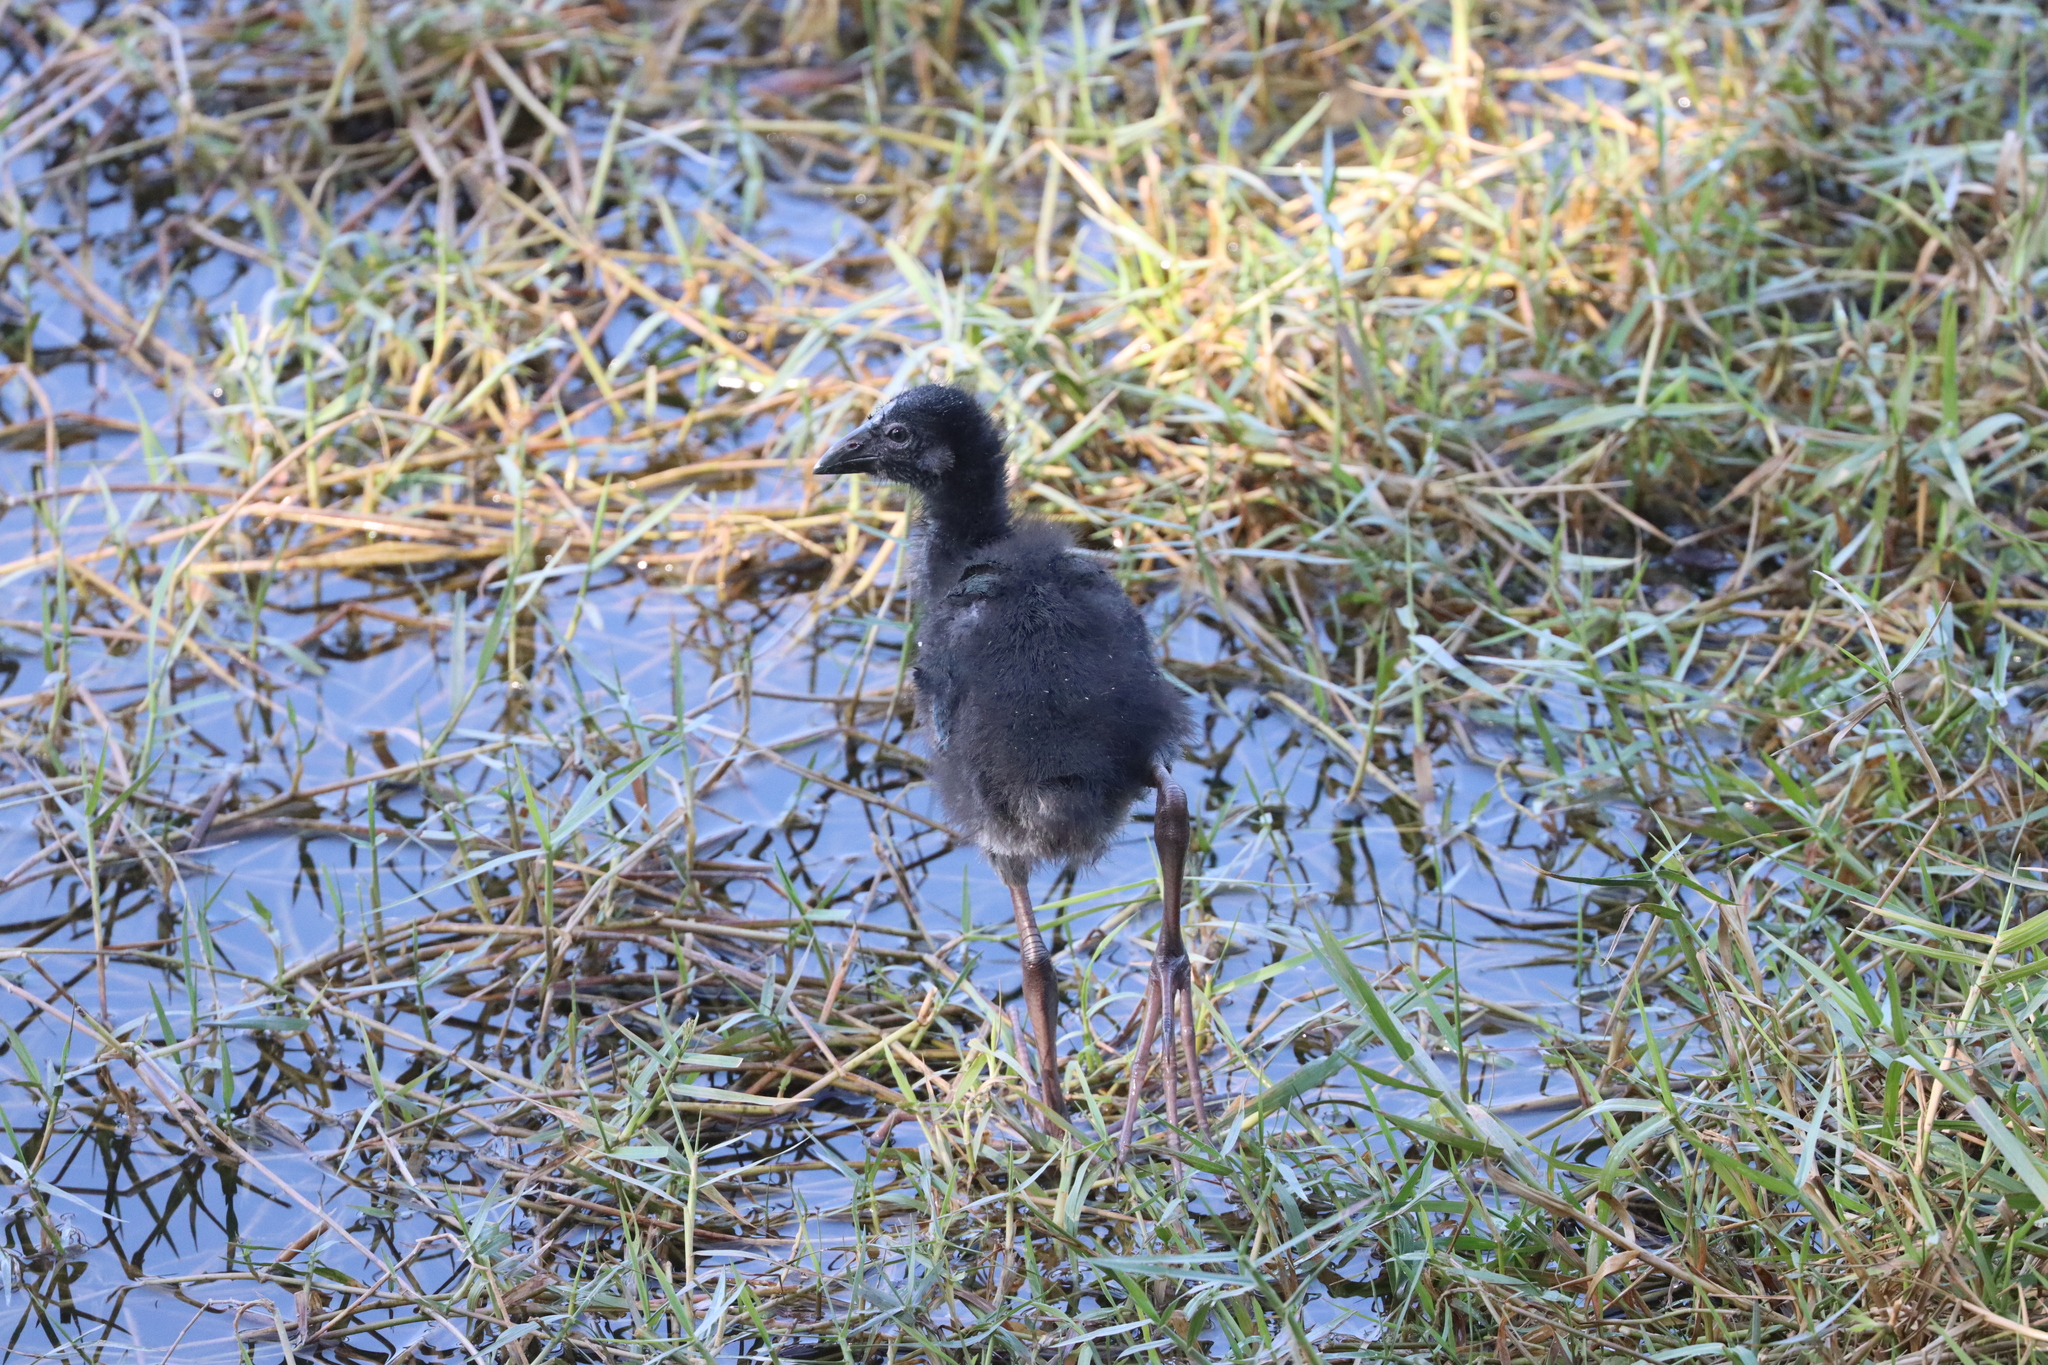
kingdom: Animalia
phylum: Chordata
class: Aves
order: Gruiformes
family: Rallidae
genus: Porphyrio
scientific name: Porphyrio porphyrio
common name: Purple swamphen
